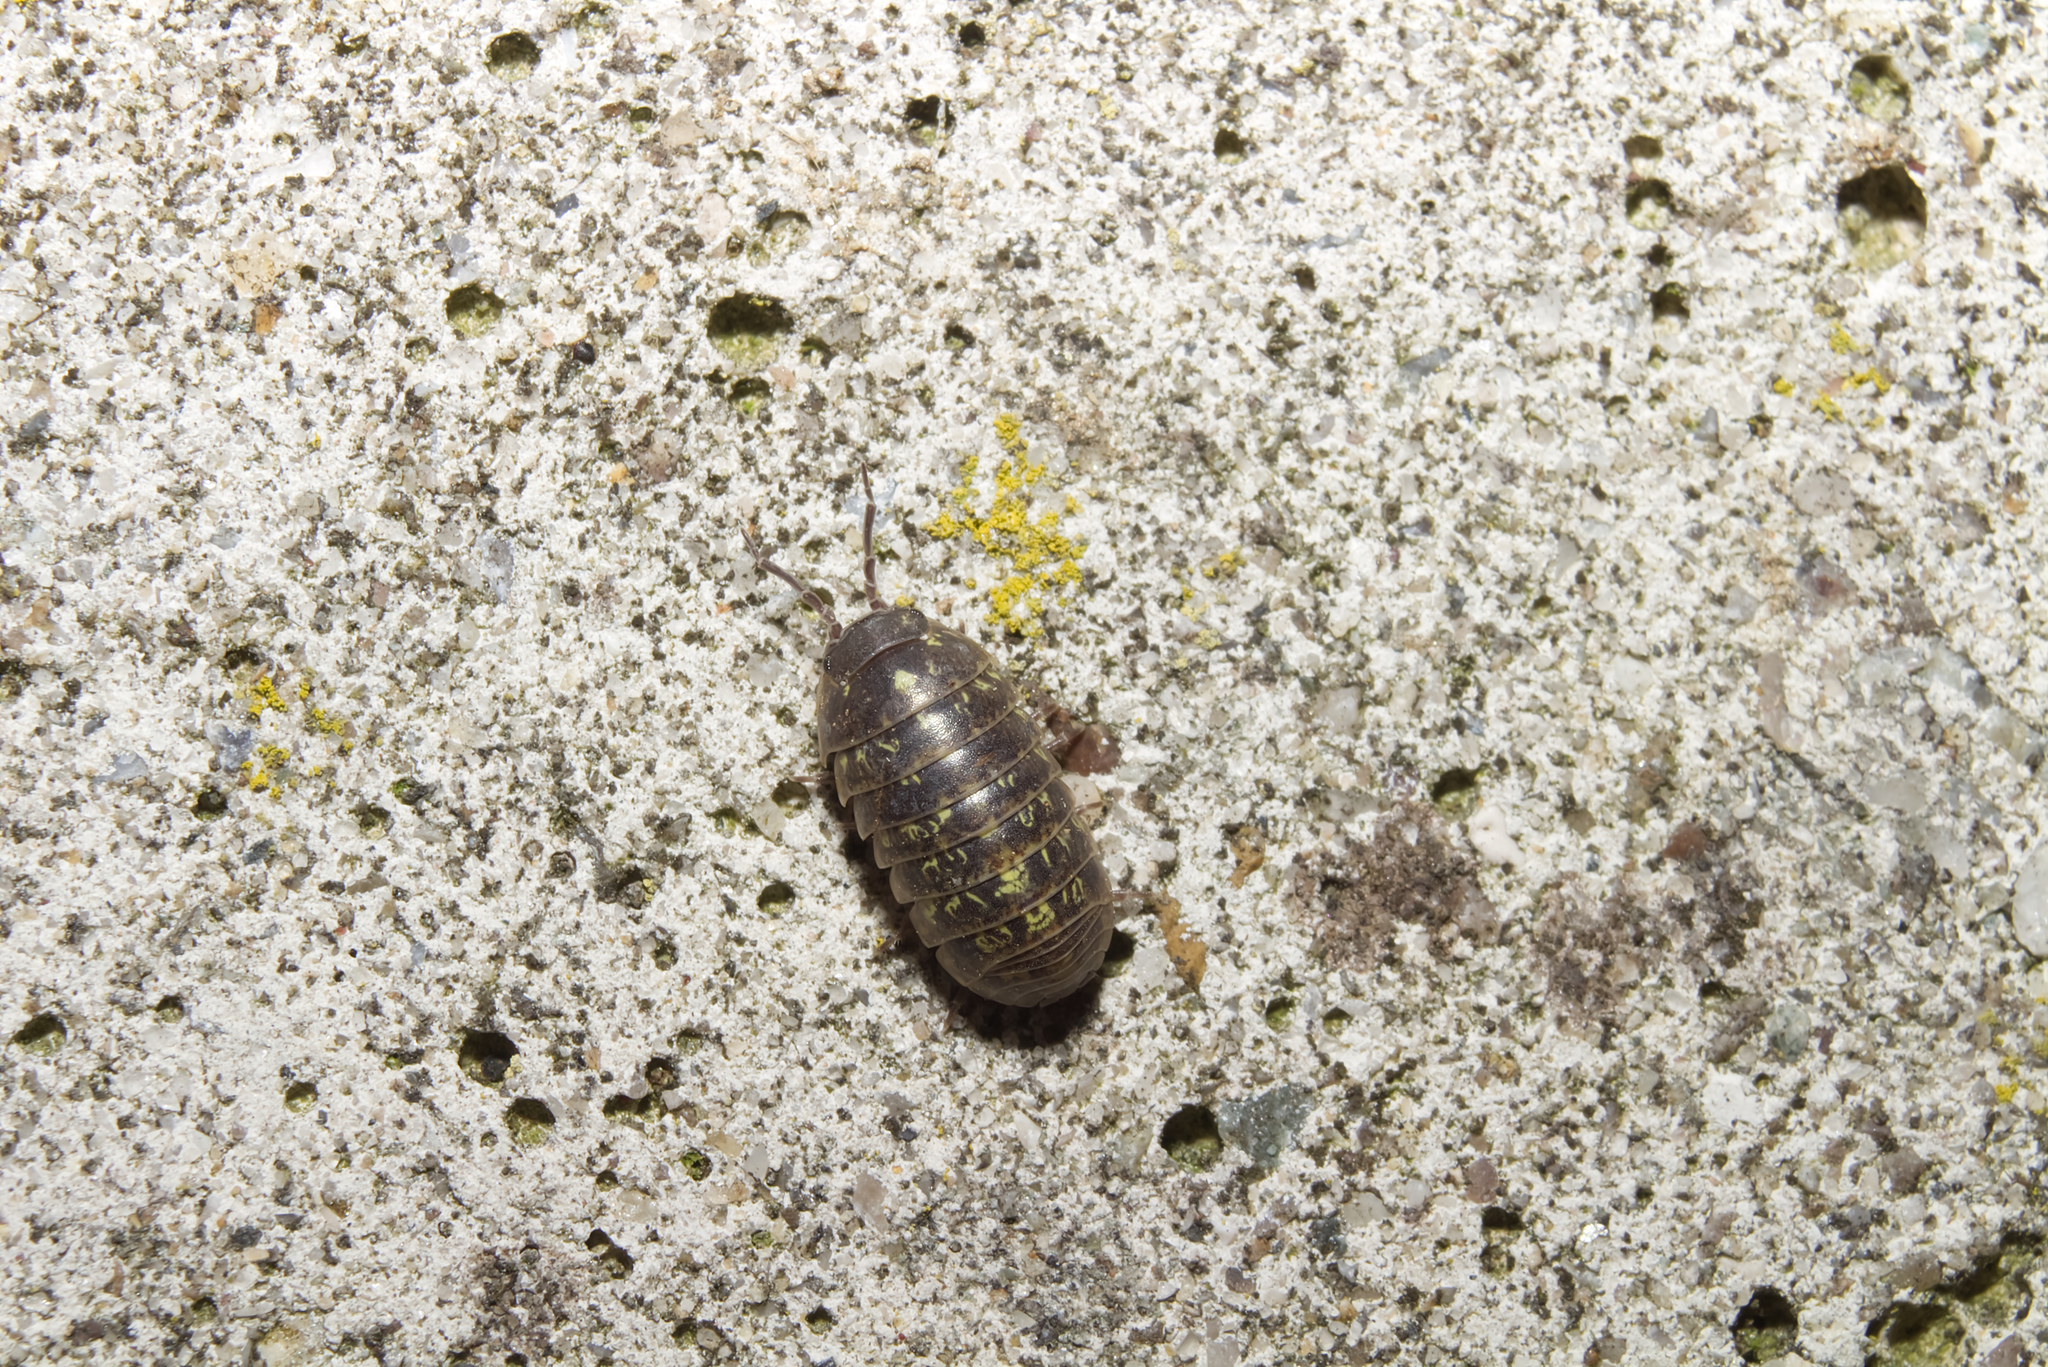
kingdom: Animalia
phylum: Arthropoda
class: Malacostraca
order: Isopoda
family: Armadillidiidae
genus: Armadillidium
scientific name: Armadillidium vulgare
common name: Common pill woodlouse
